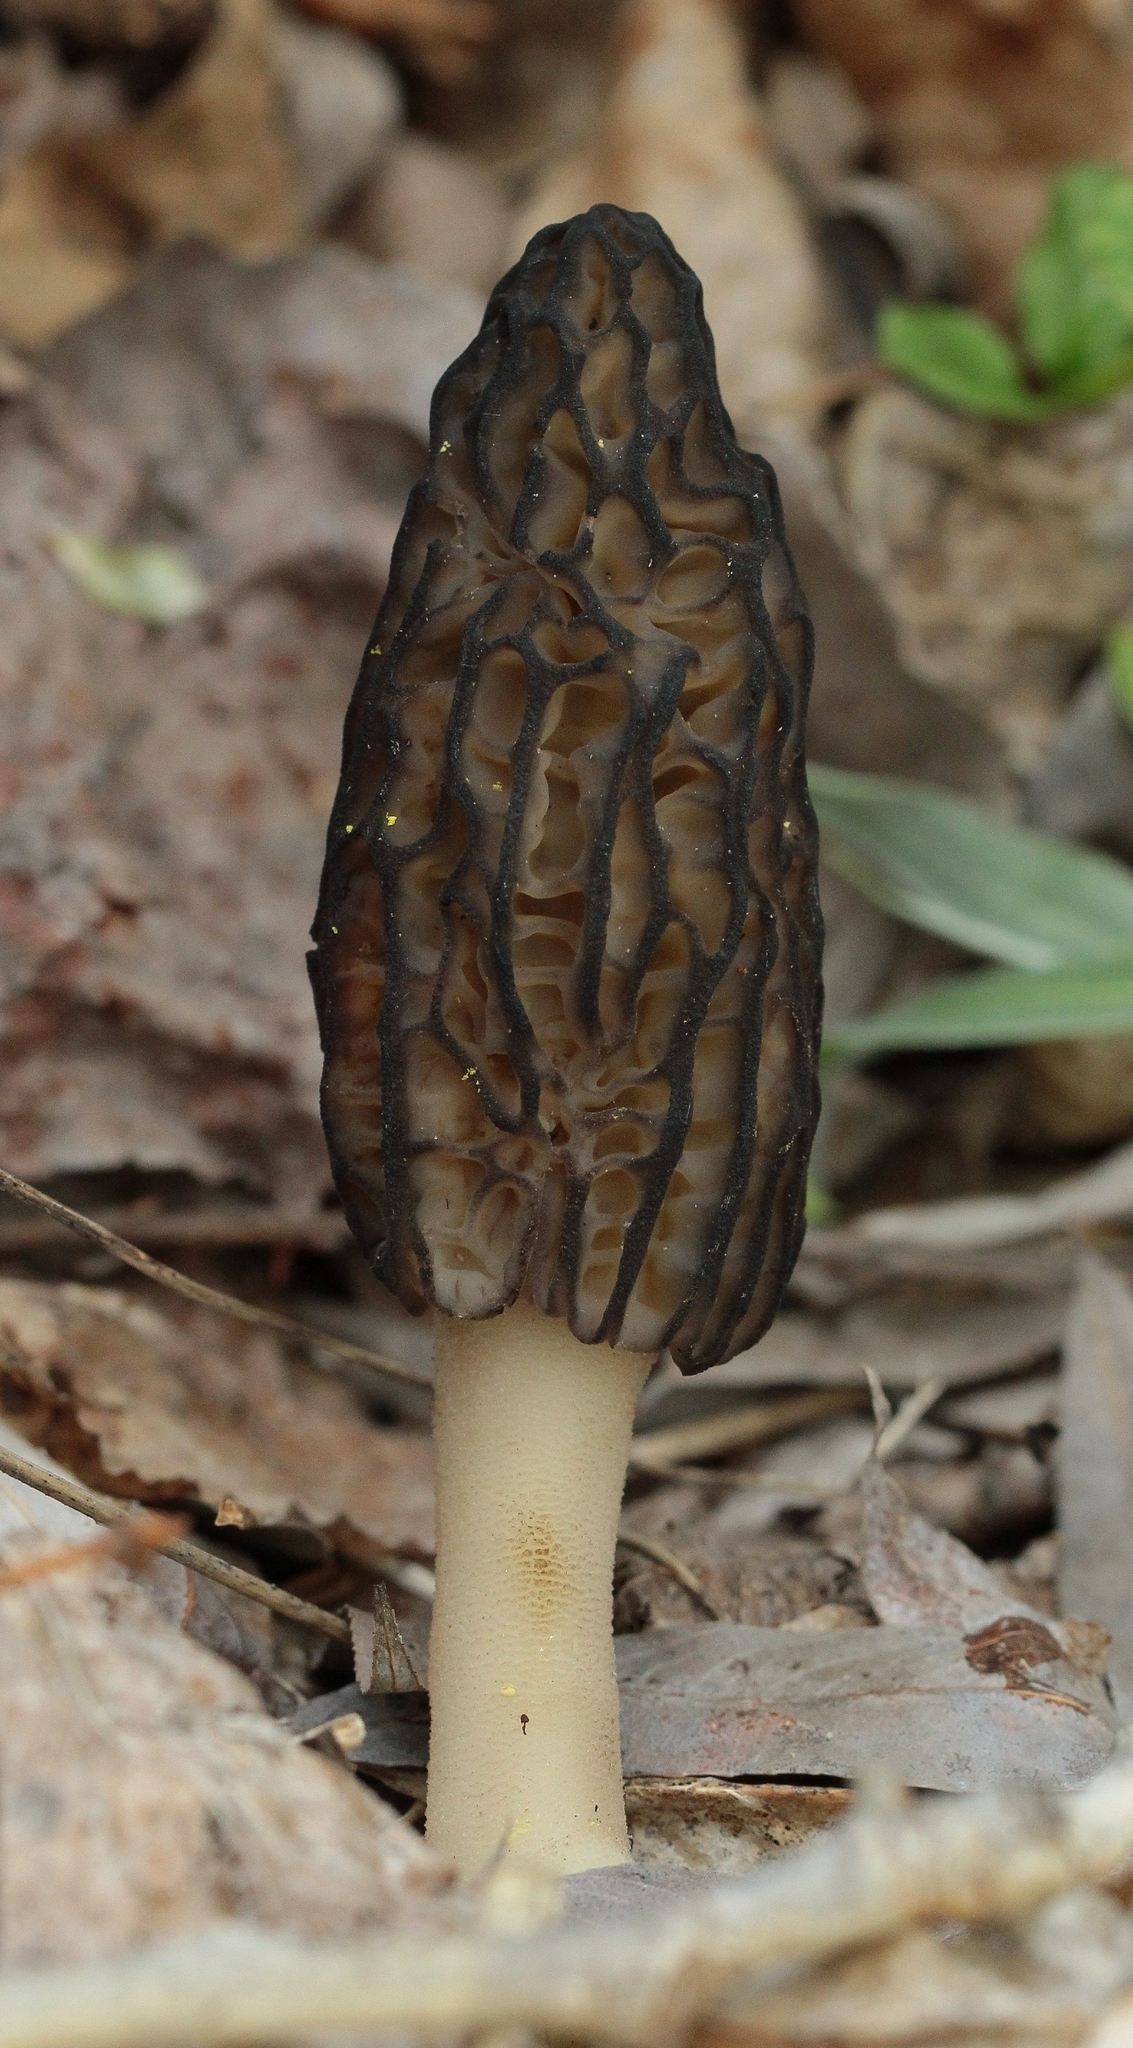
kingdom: Fungi
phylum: Ascomycota
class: Pezizomycetes
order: Pezizales
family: Morchellaceae
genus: Morchella
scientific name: Morchella
